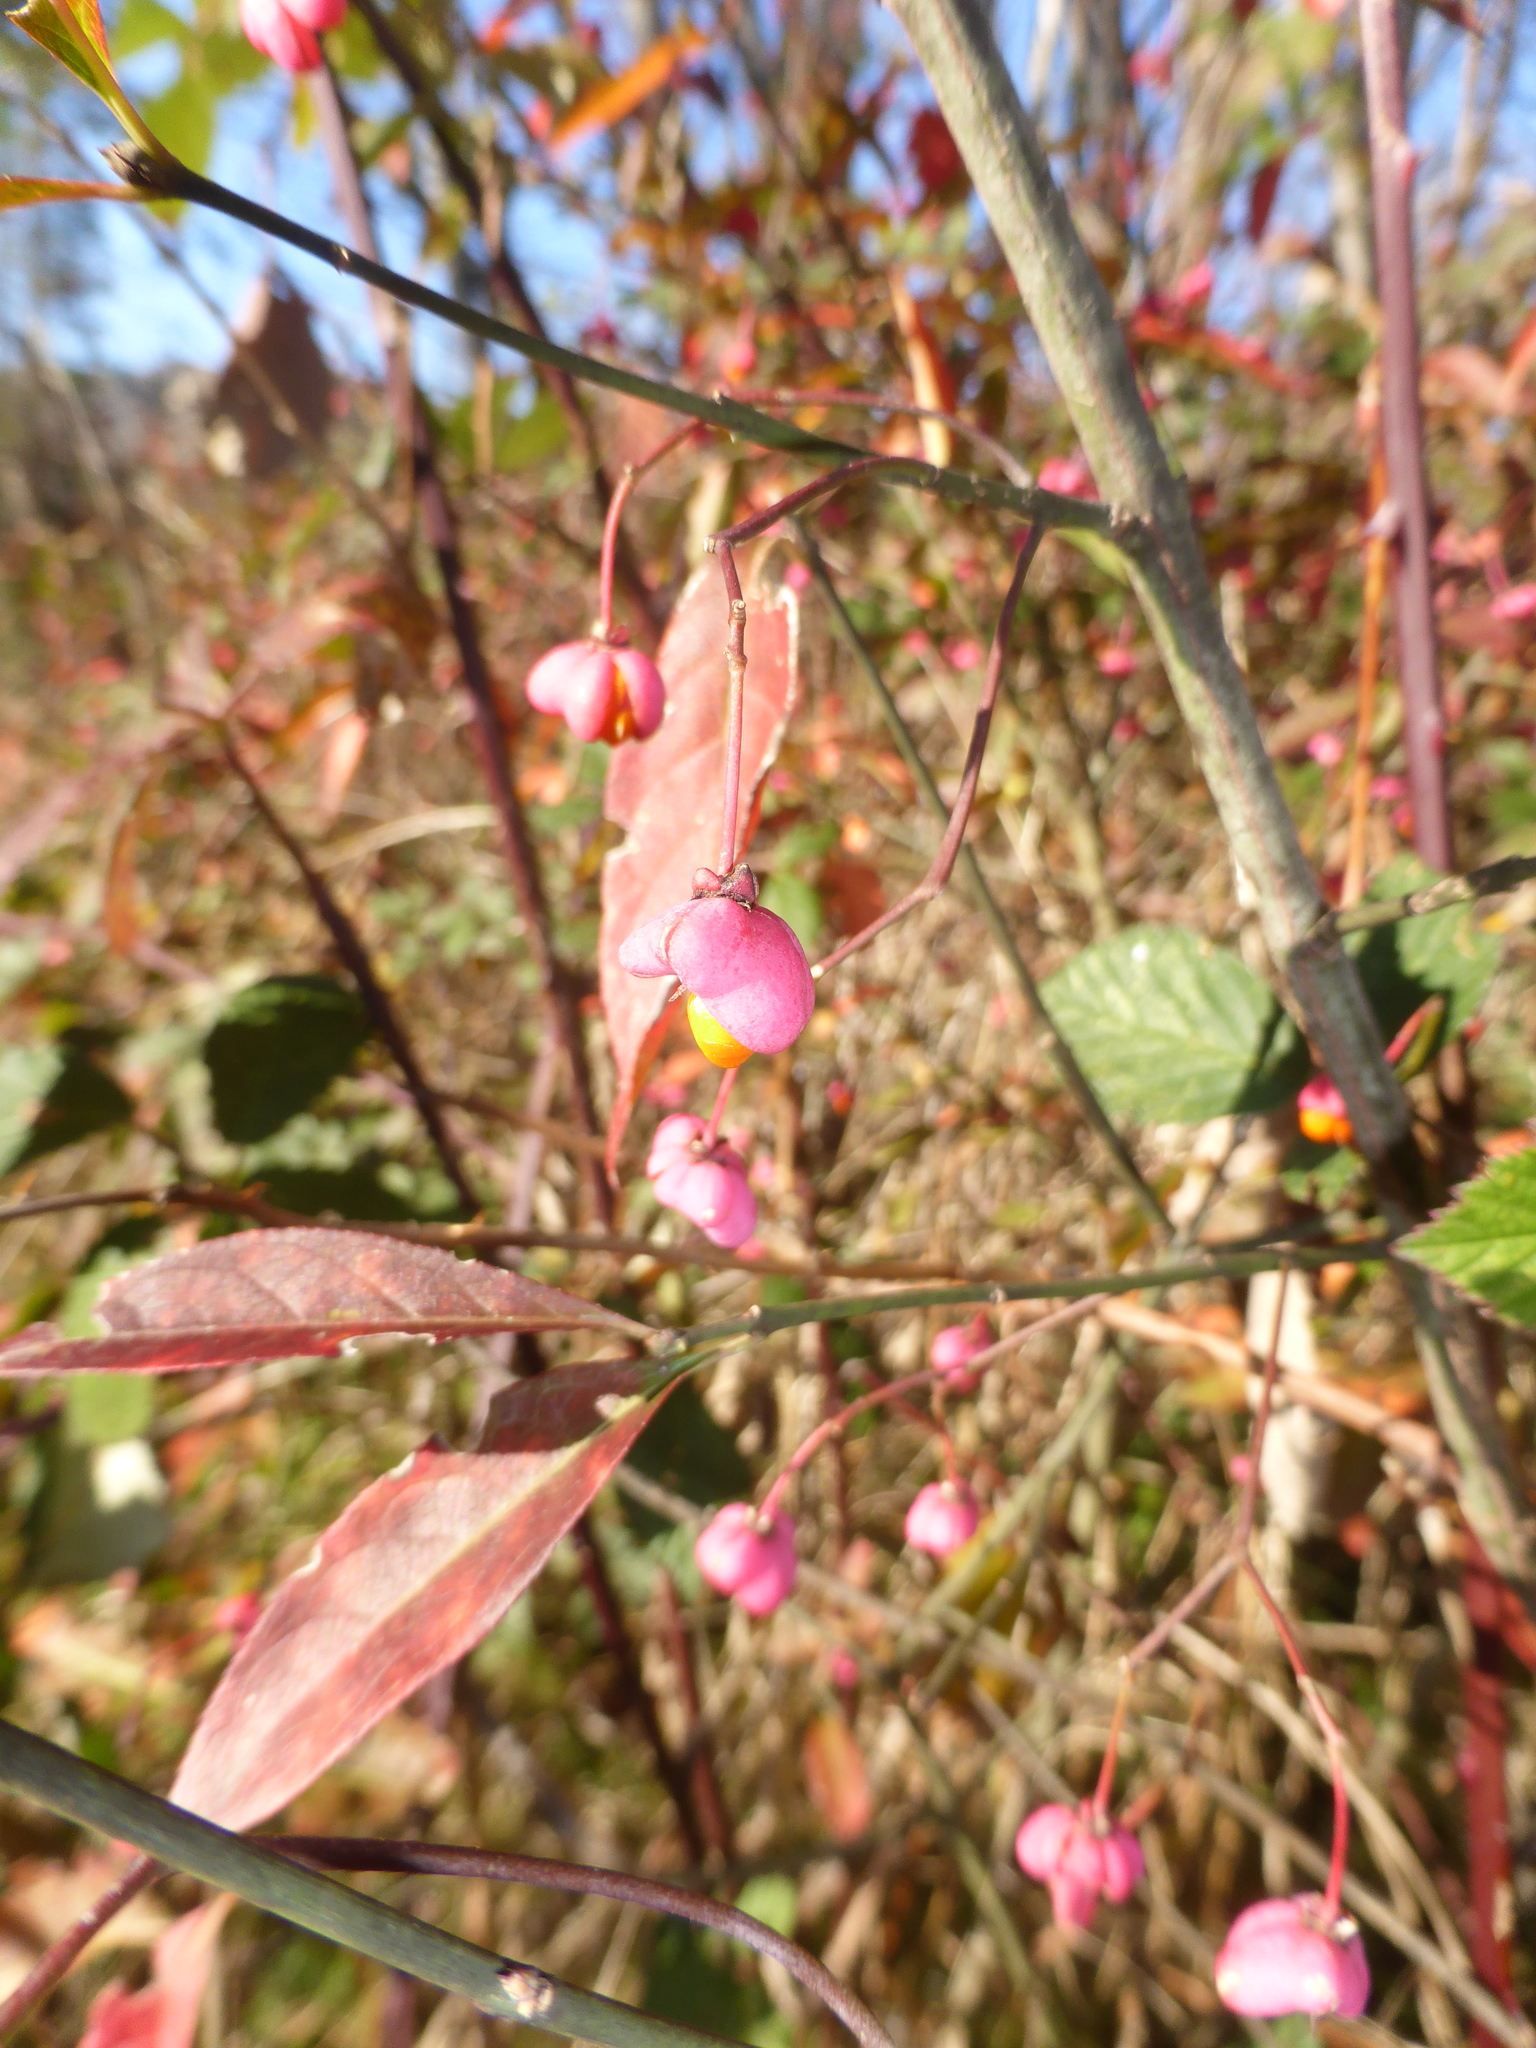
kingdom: Plantae
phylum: Tracheophyta
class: Magnoliopsida
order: Celastrales
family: Celastraceae
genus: Euonymus
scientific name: Euonymus europaeus
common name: Spindle
